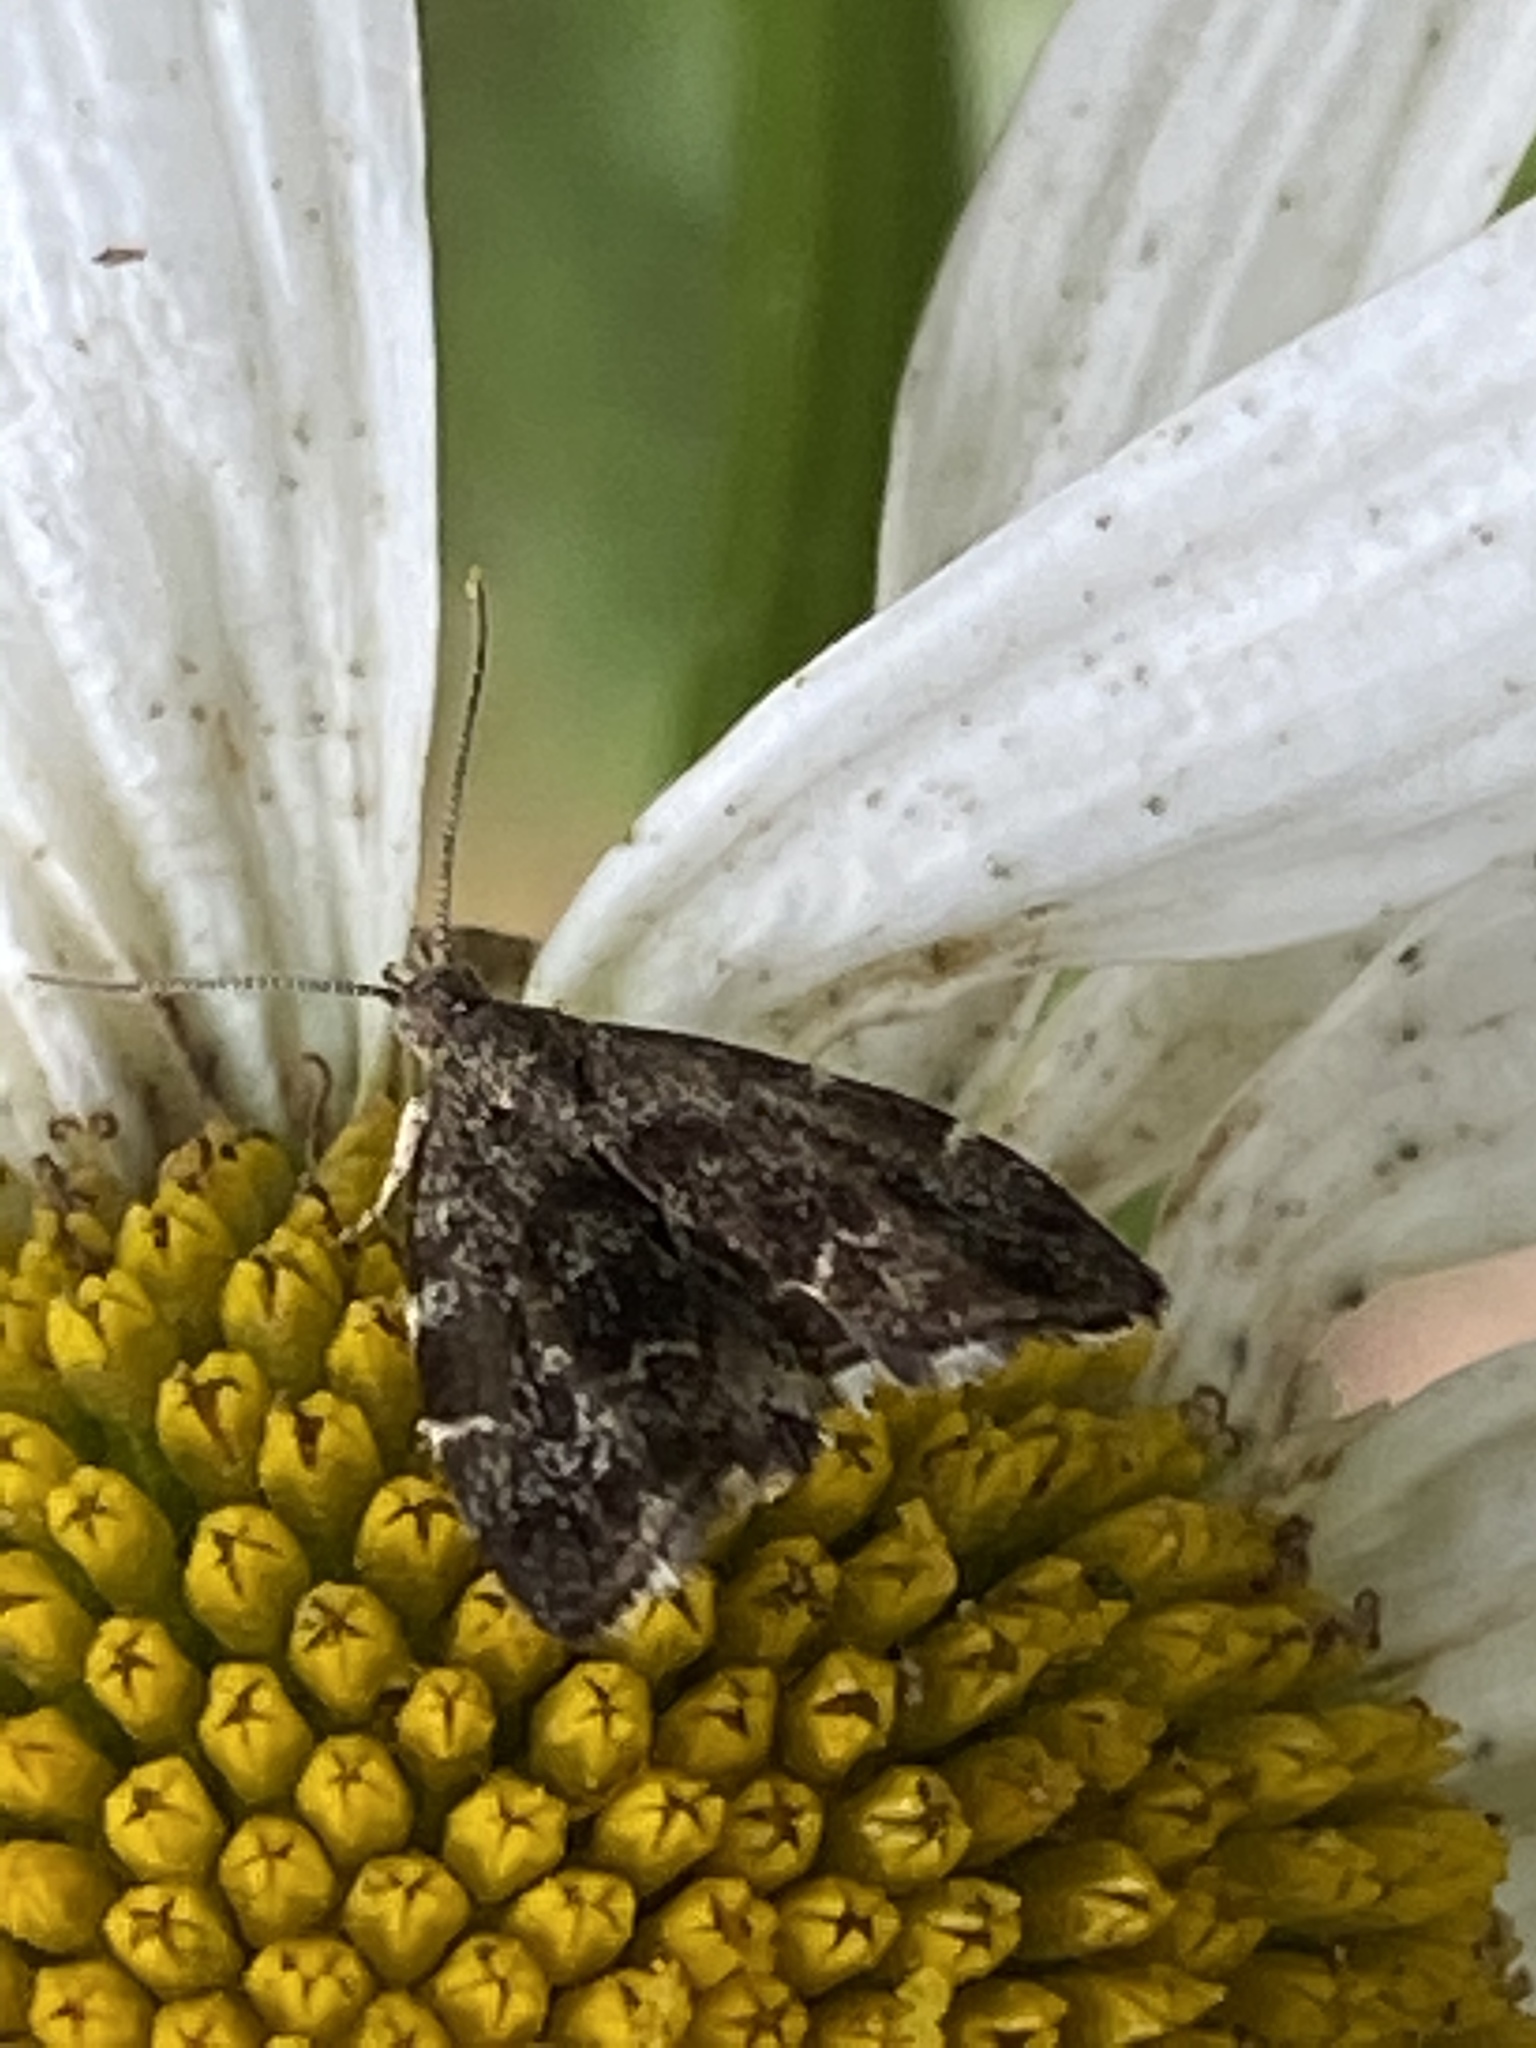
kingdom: Animalia
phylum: Arthropoda
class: Insecta
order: Lepidoptera
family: Choreutidae
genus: Anthophila
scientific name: Anthophila fabriciana
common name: Nettle-tap
